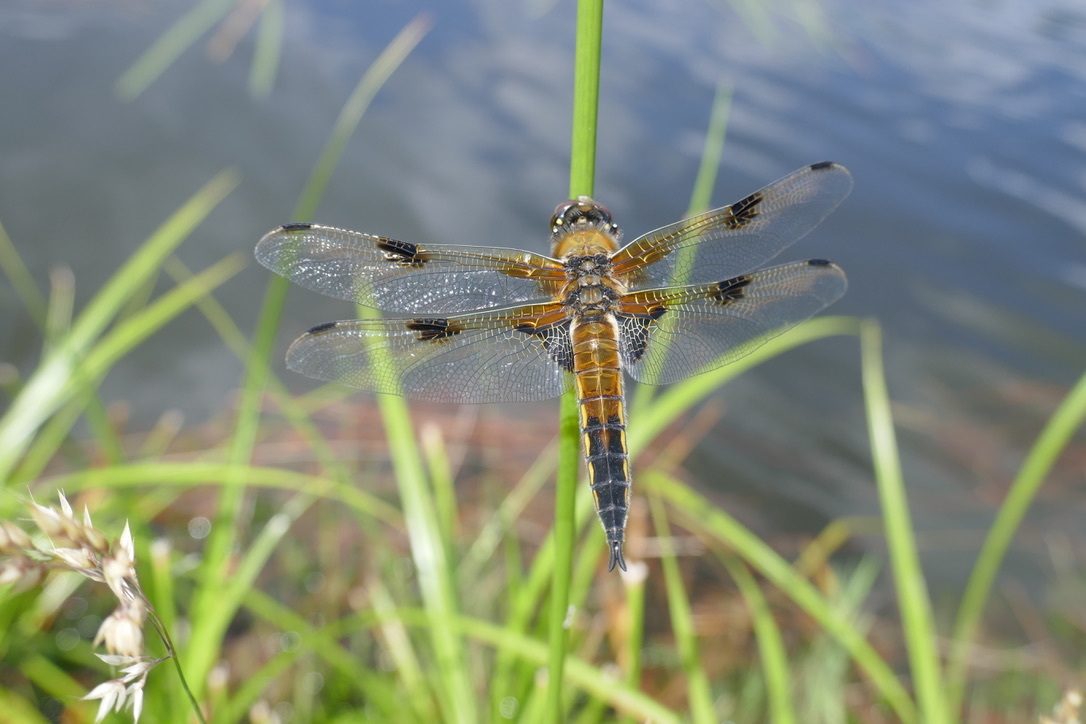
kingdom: Animalia
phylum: Arthropoda
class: Insecta
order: Odonata
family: Libellulidae
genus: Libellula
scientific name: Libellula quadrimaculata
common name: Four-spotted chaser
